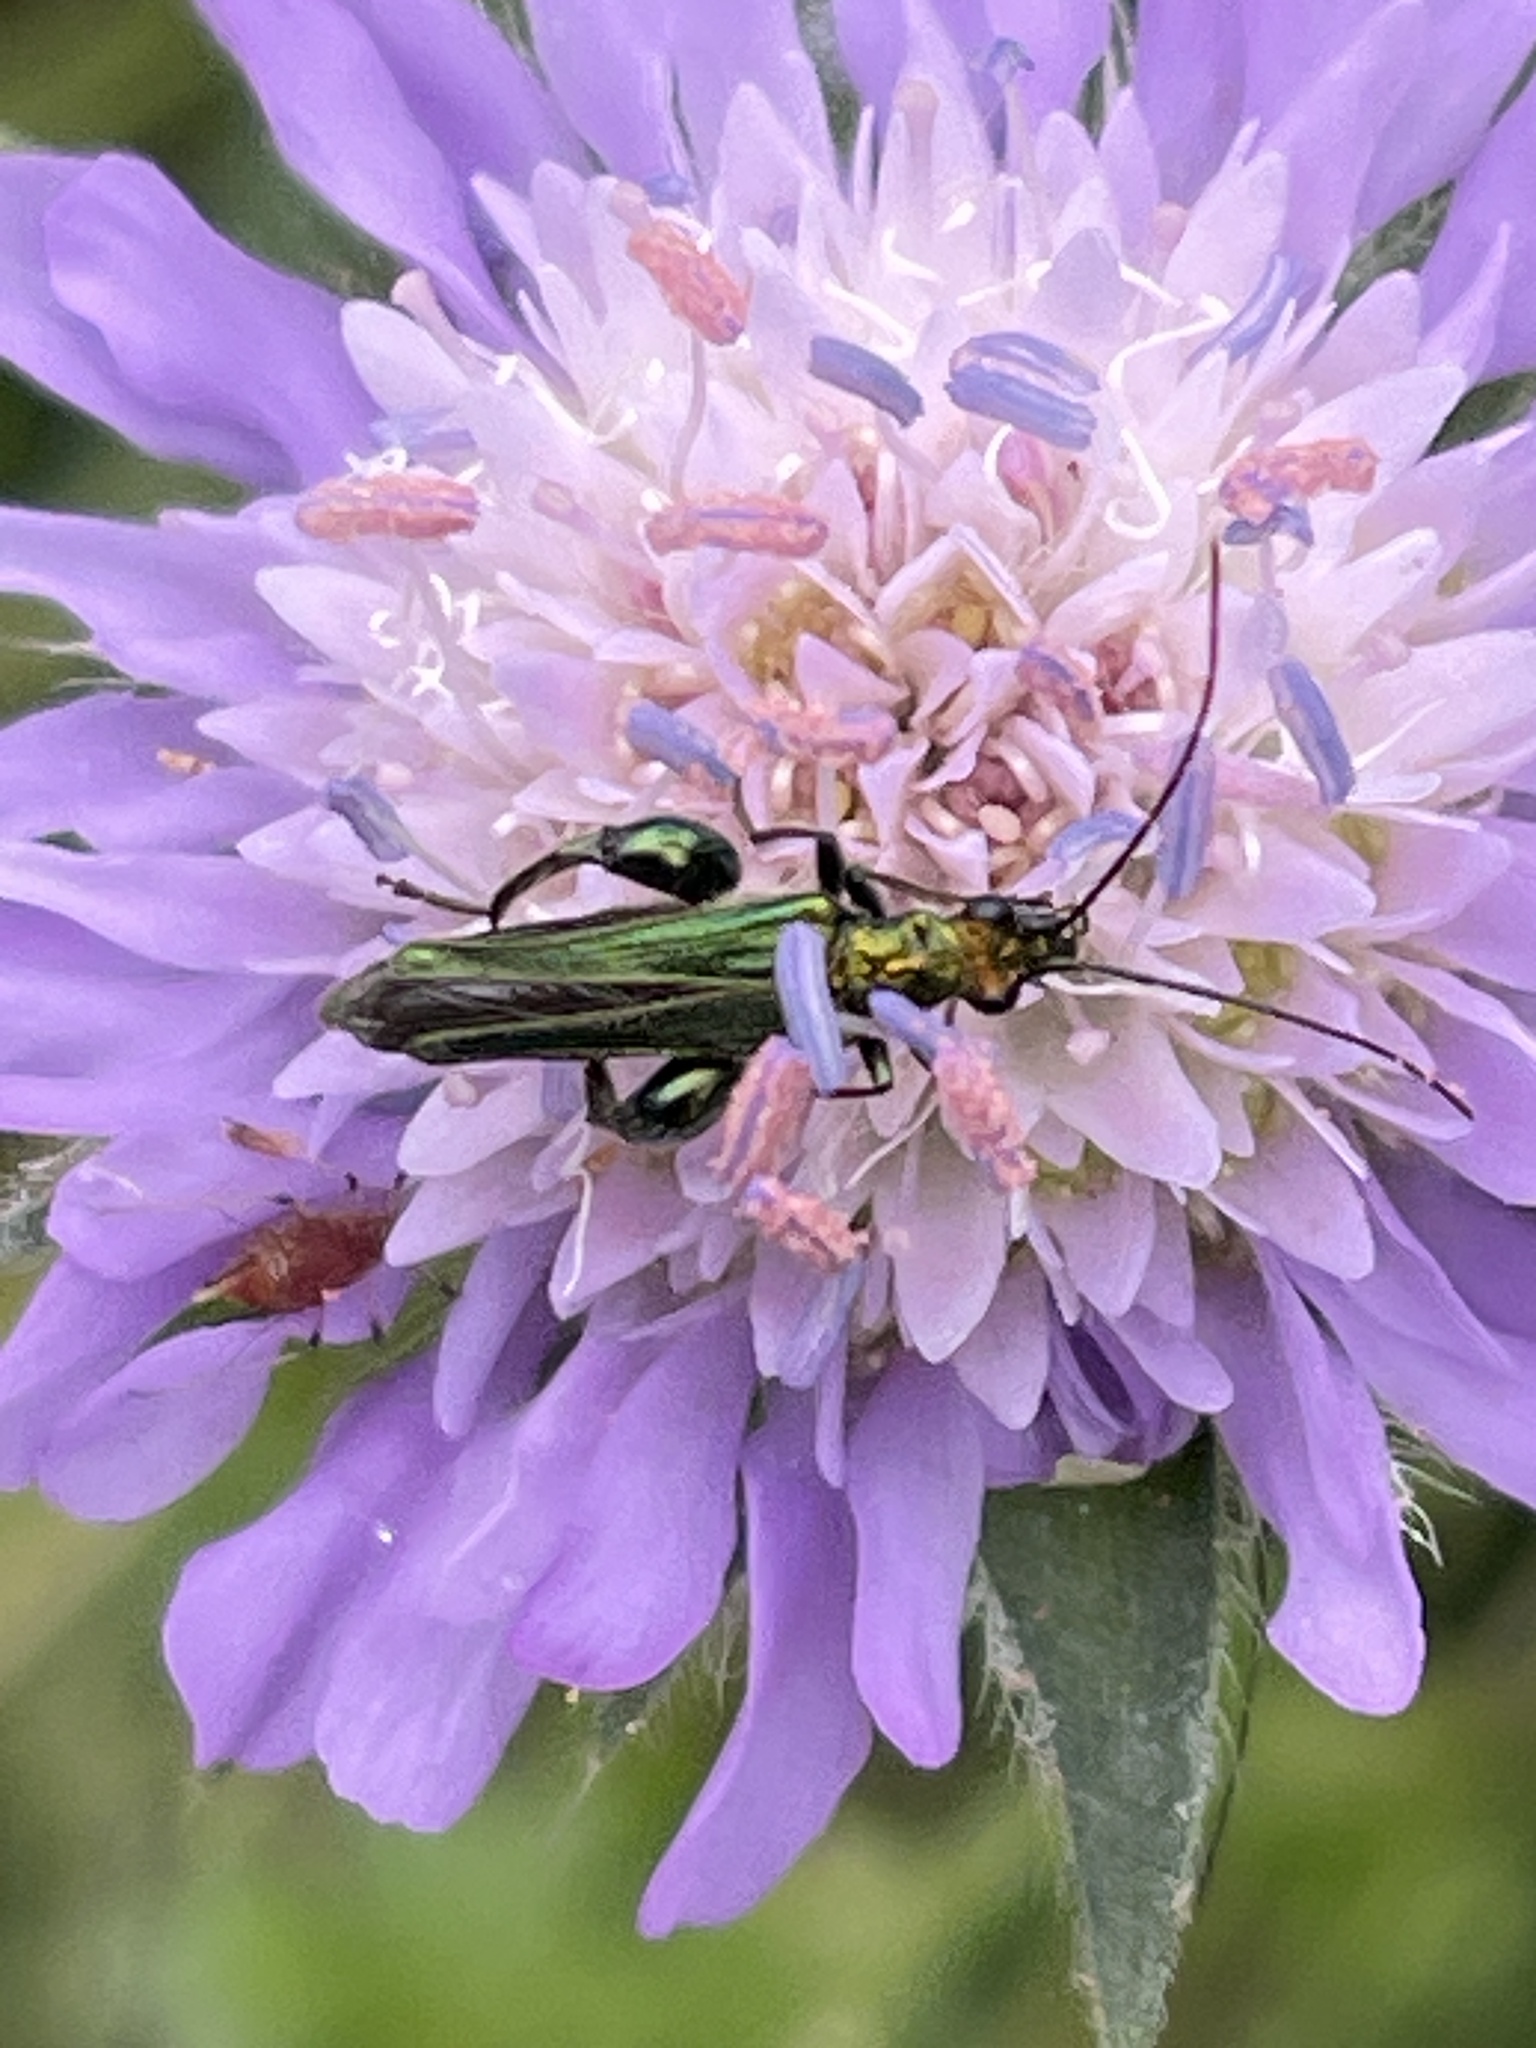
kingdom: Animalia
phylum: Arthropoda
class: Insecta
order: Coleoptera
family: Oedemeridae
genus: Oedemera
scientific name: Oedemera nobilis
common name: Swollen-thighed beetle
